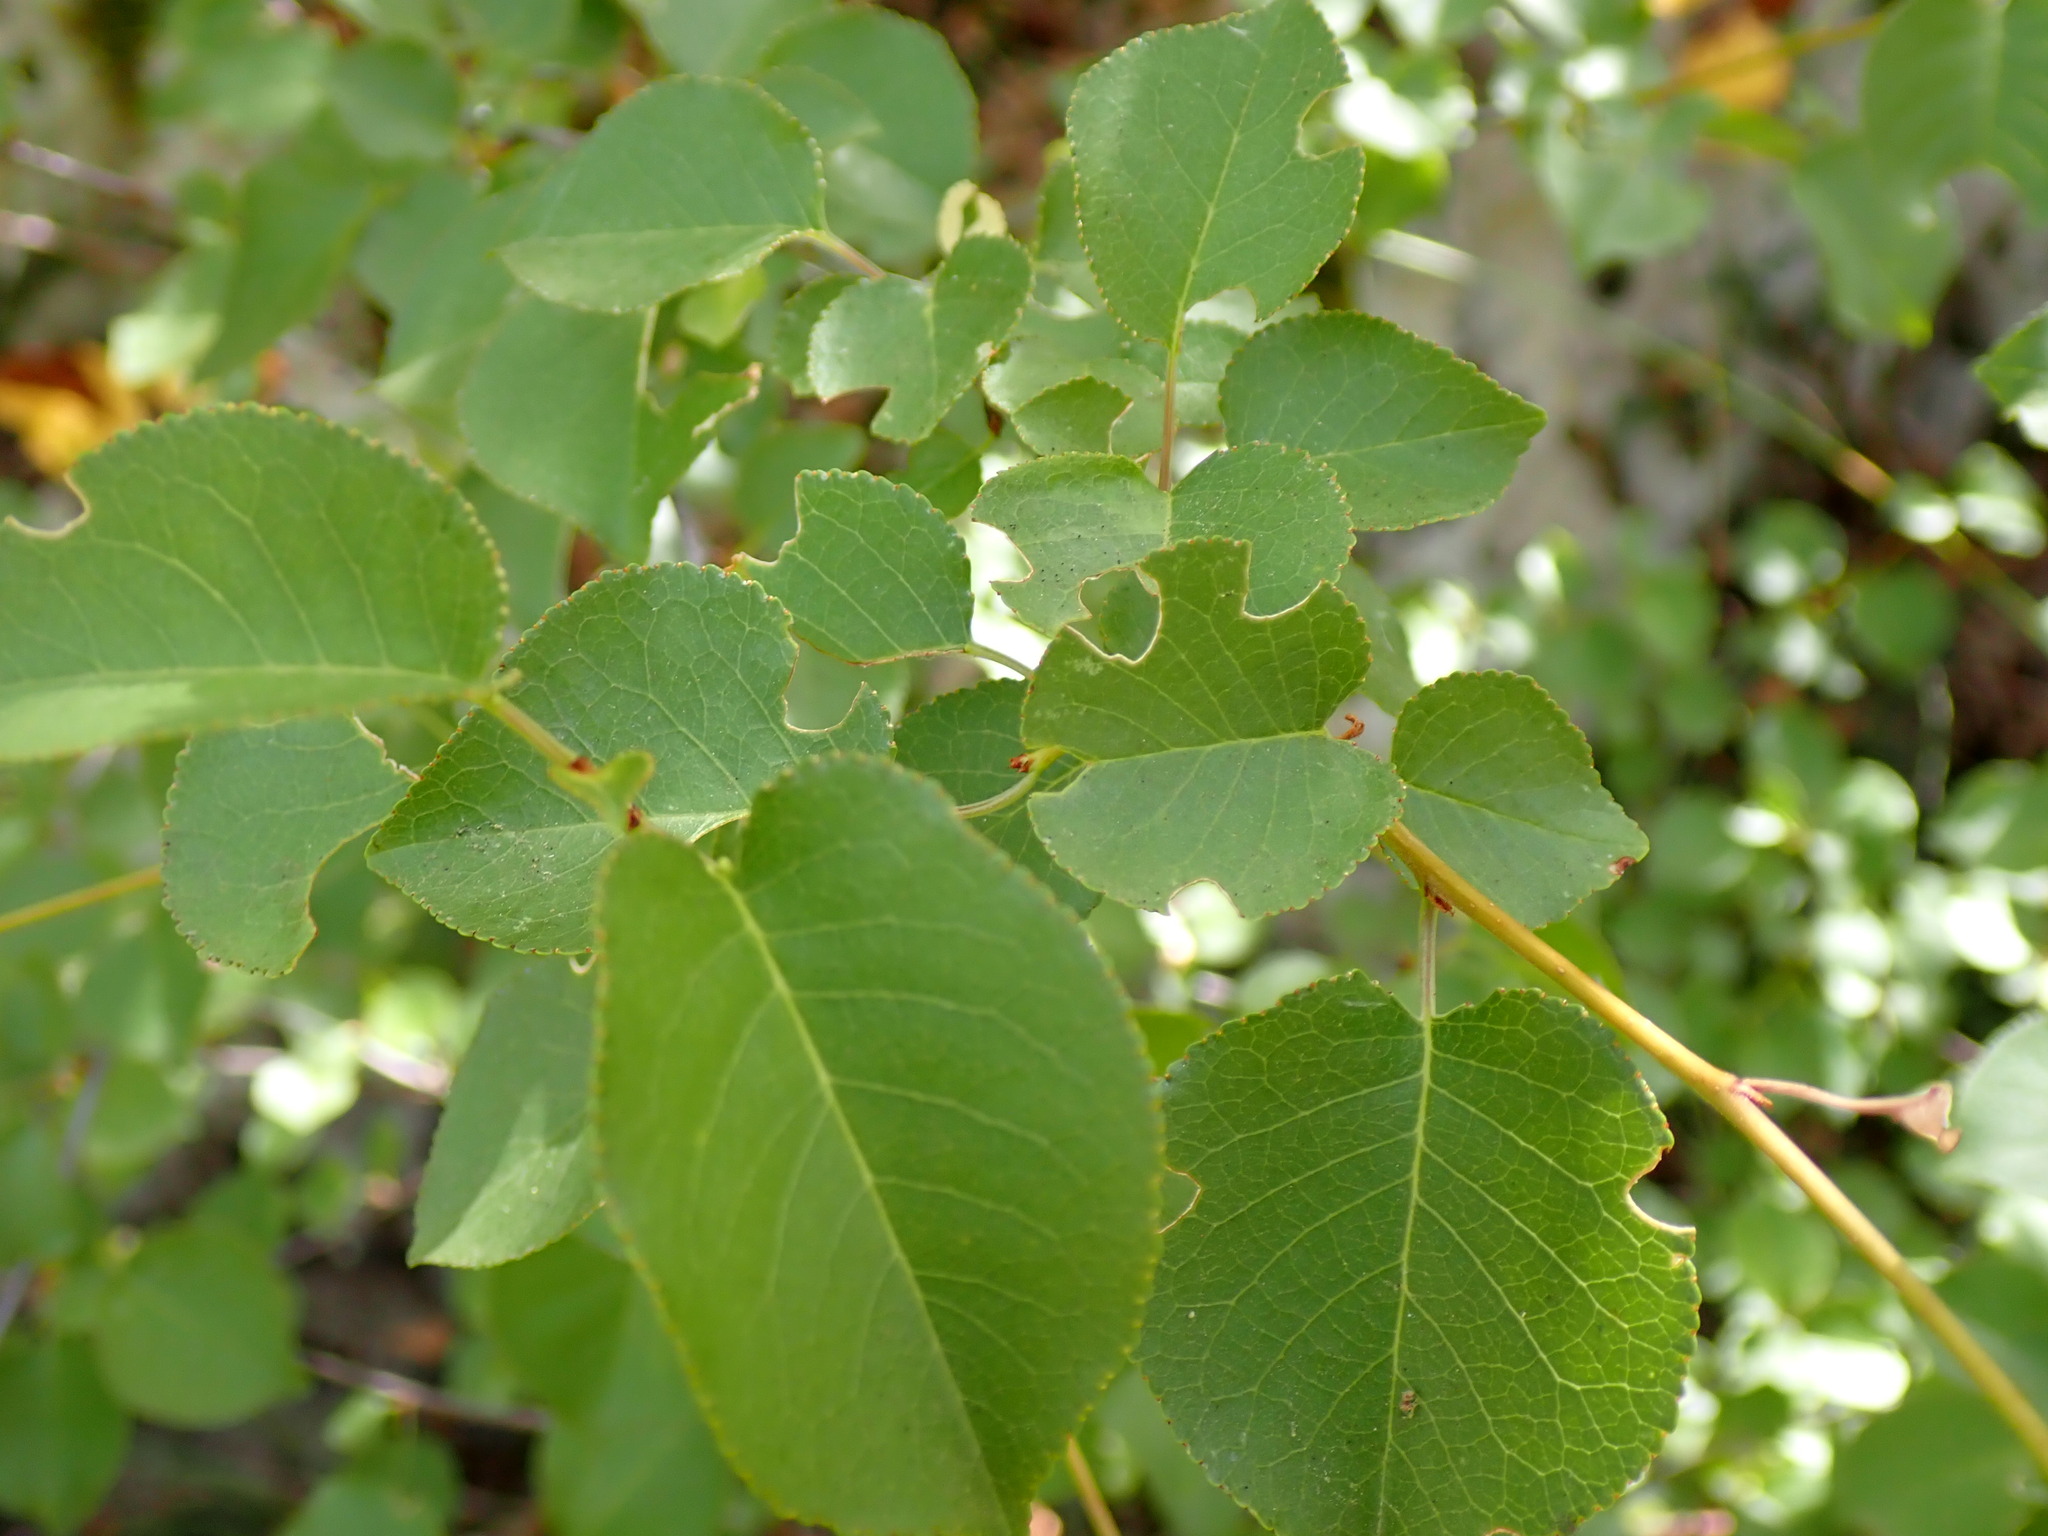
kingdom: Plantae
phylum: Tracheophyta
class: Magnoliopsida
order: Rosales
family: Rosaceae
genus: Prunus
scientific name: Prunus mahaleb
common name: Mahaleb cherry
